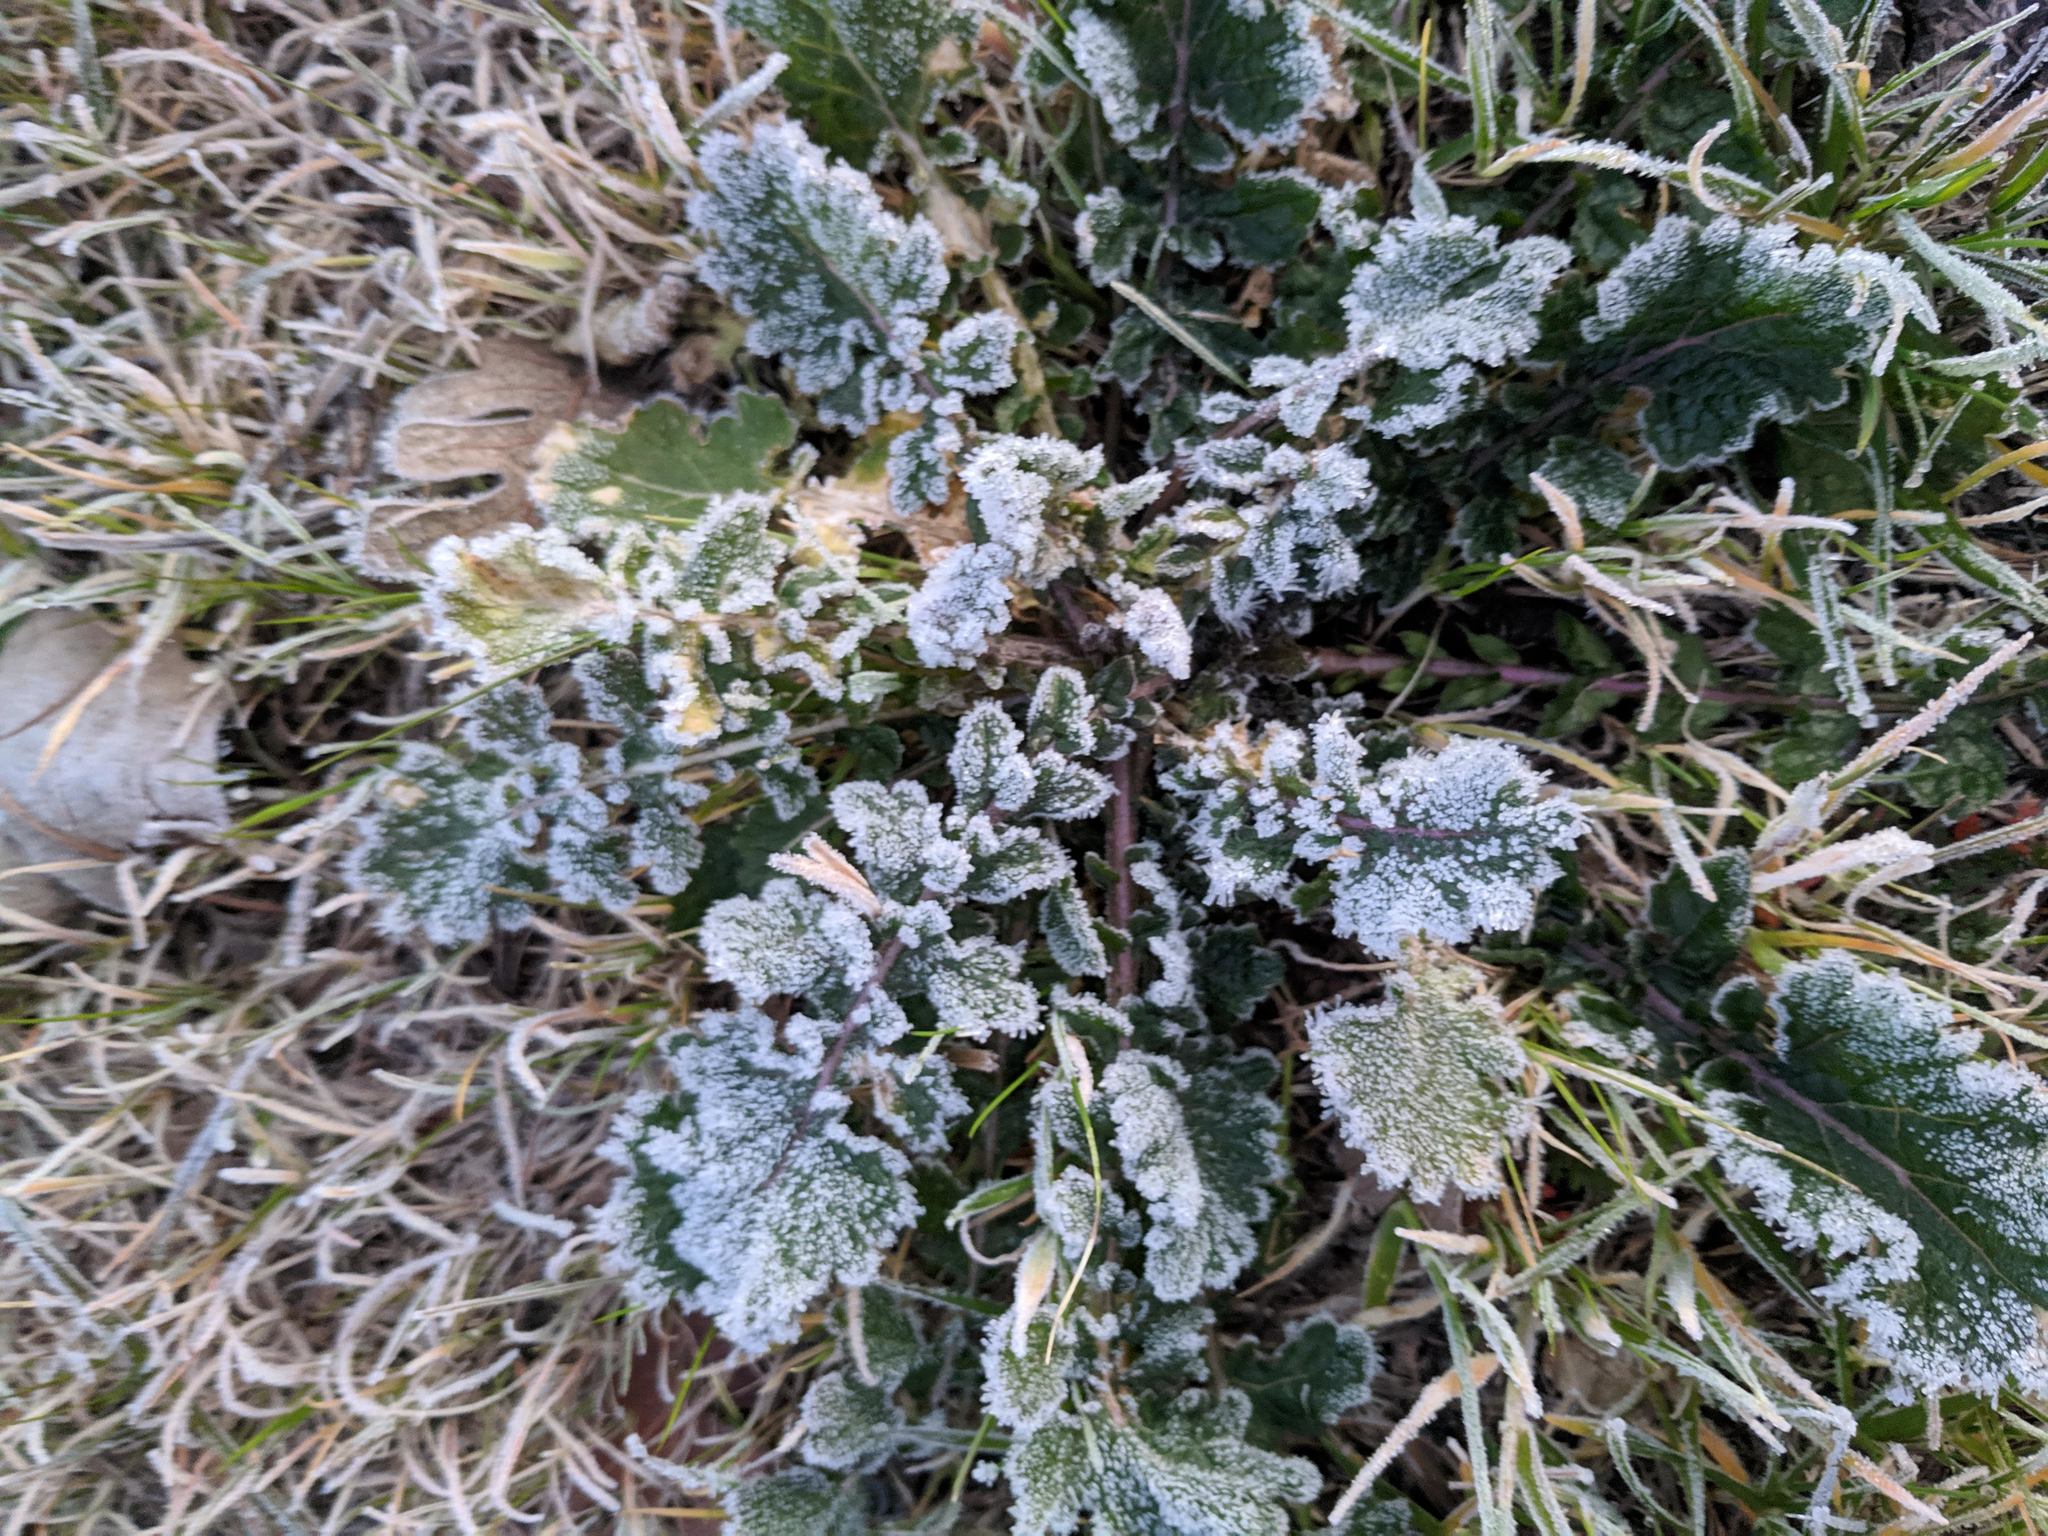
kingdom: Plantae
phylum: Tracheophyta
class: Magnoliopsida
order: Brassicales
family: Brassicaceae
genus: Hirschfeldia
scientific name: Hirschfeldia incana
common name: Hoary mustard
